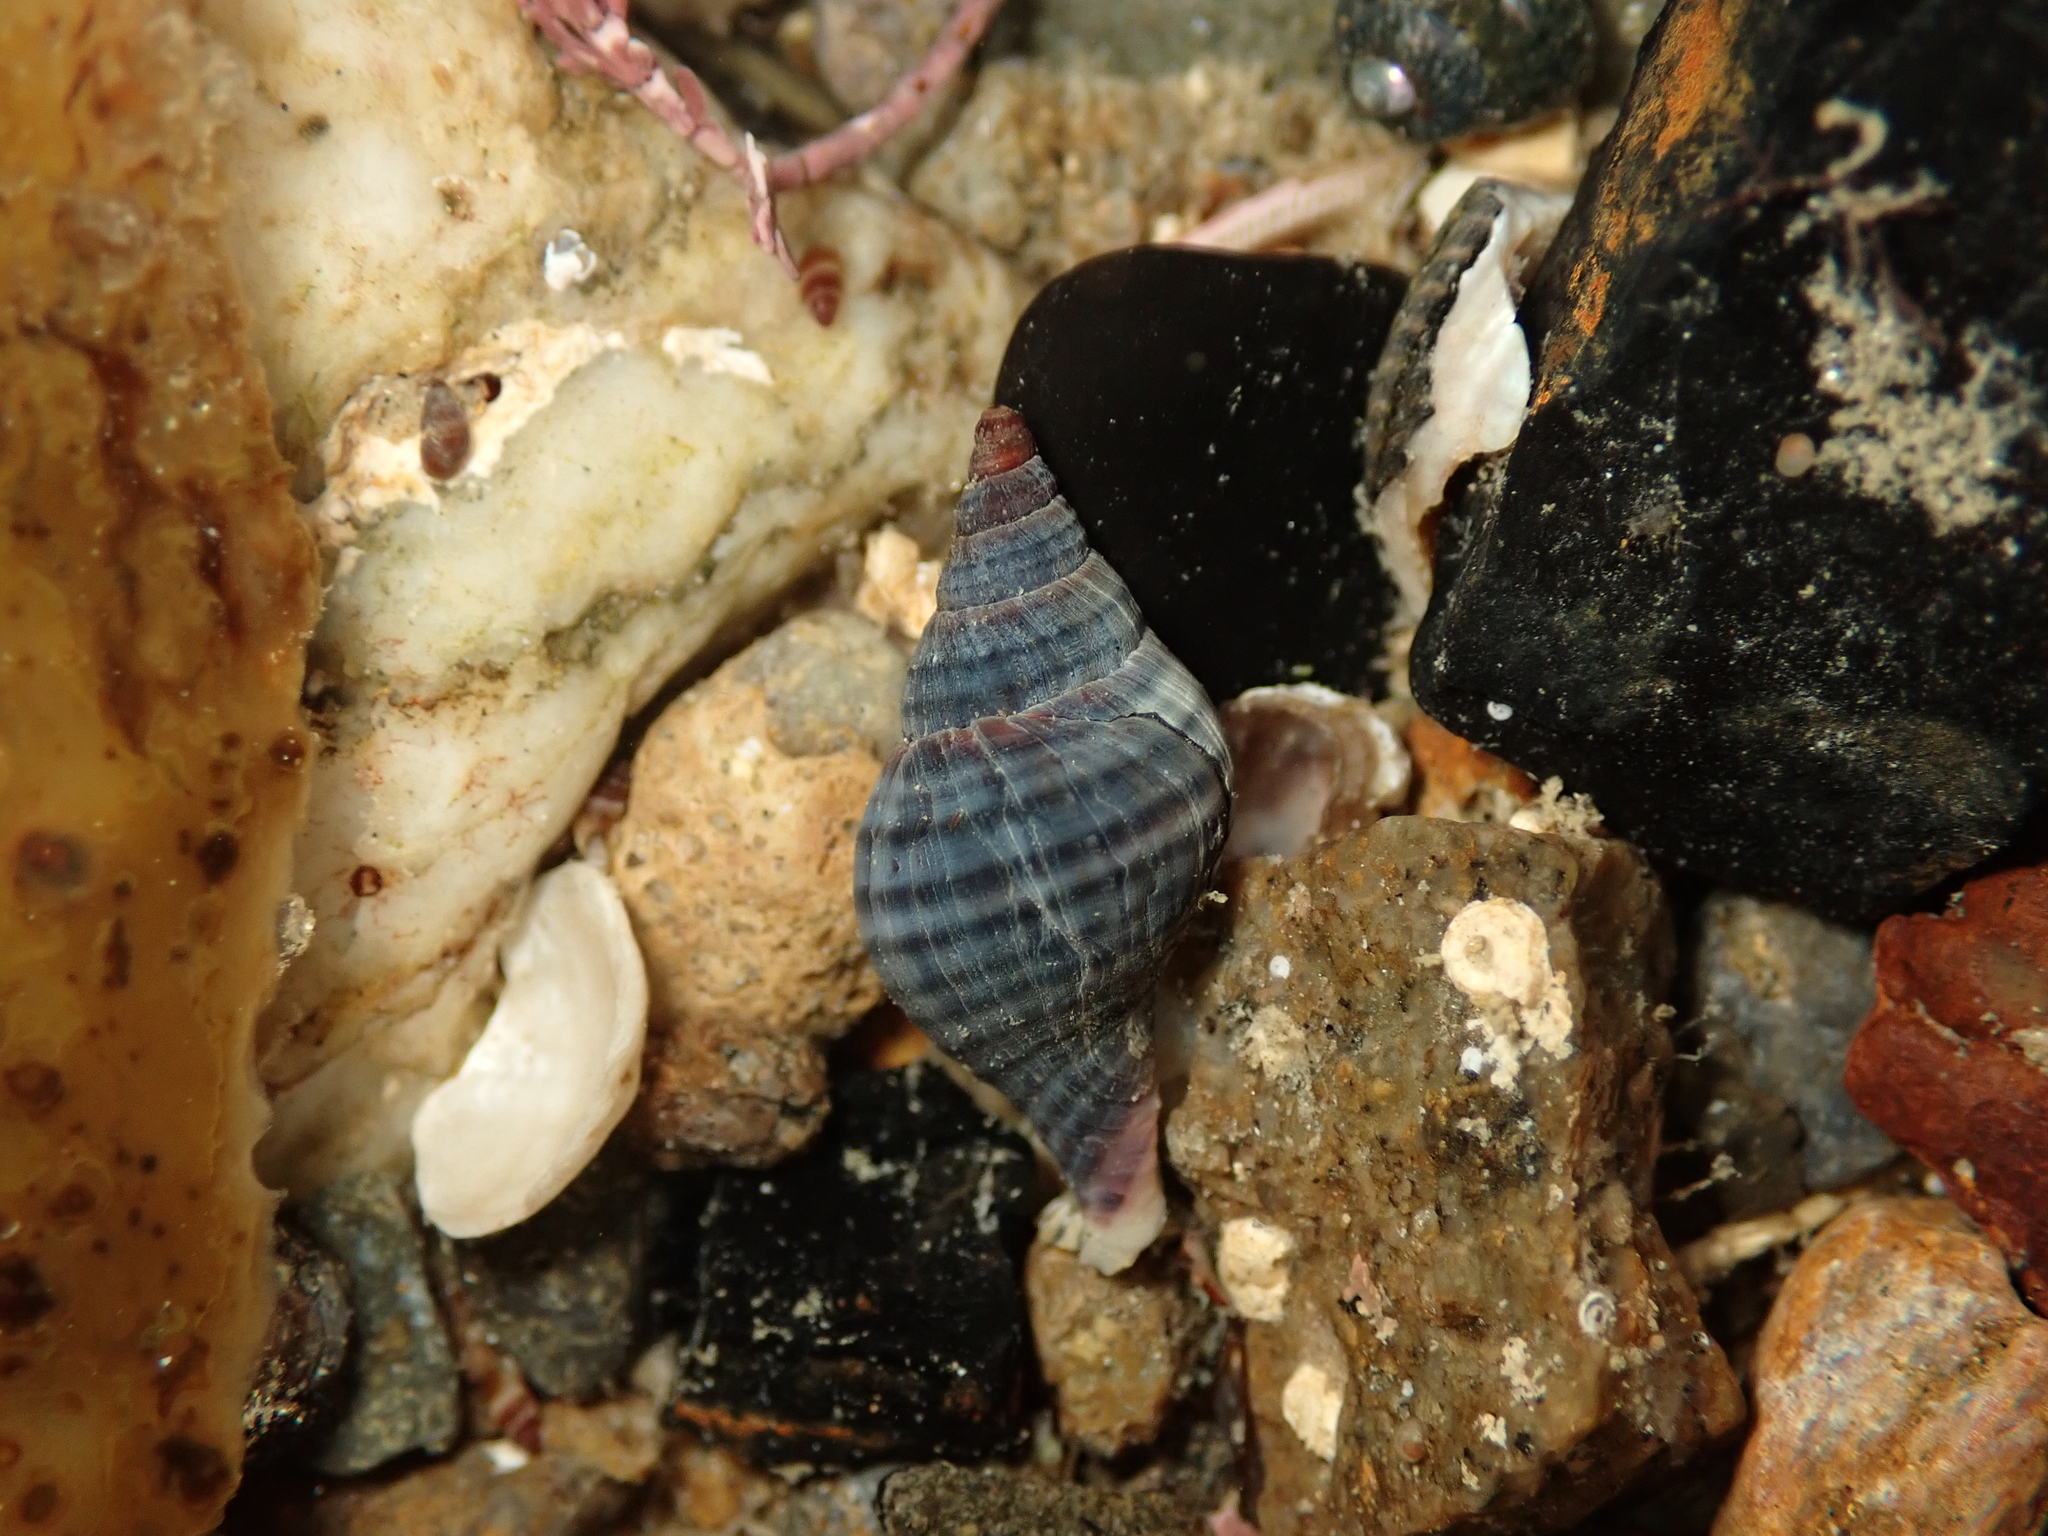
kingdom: Animalia
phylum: Mollusca
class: Gastropoda
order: Neogastropoda
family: Tudiclidae
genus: Buccinulum
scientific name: Buccinulum littorinoides
